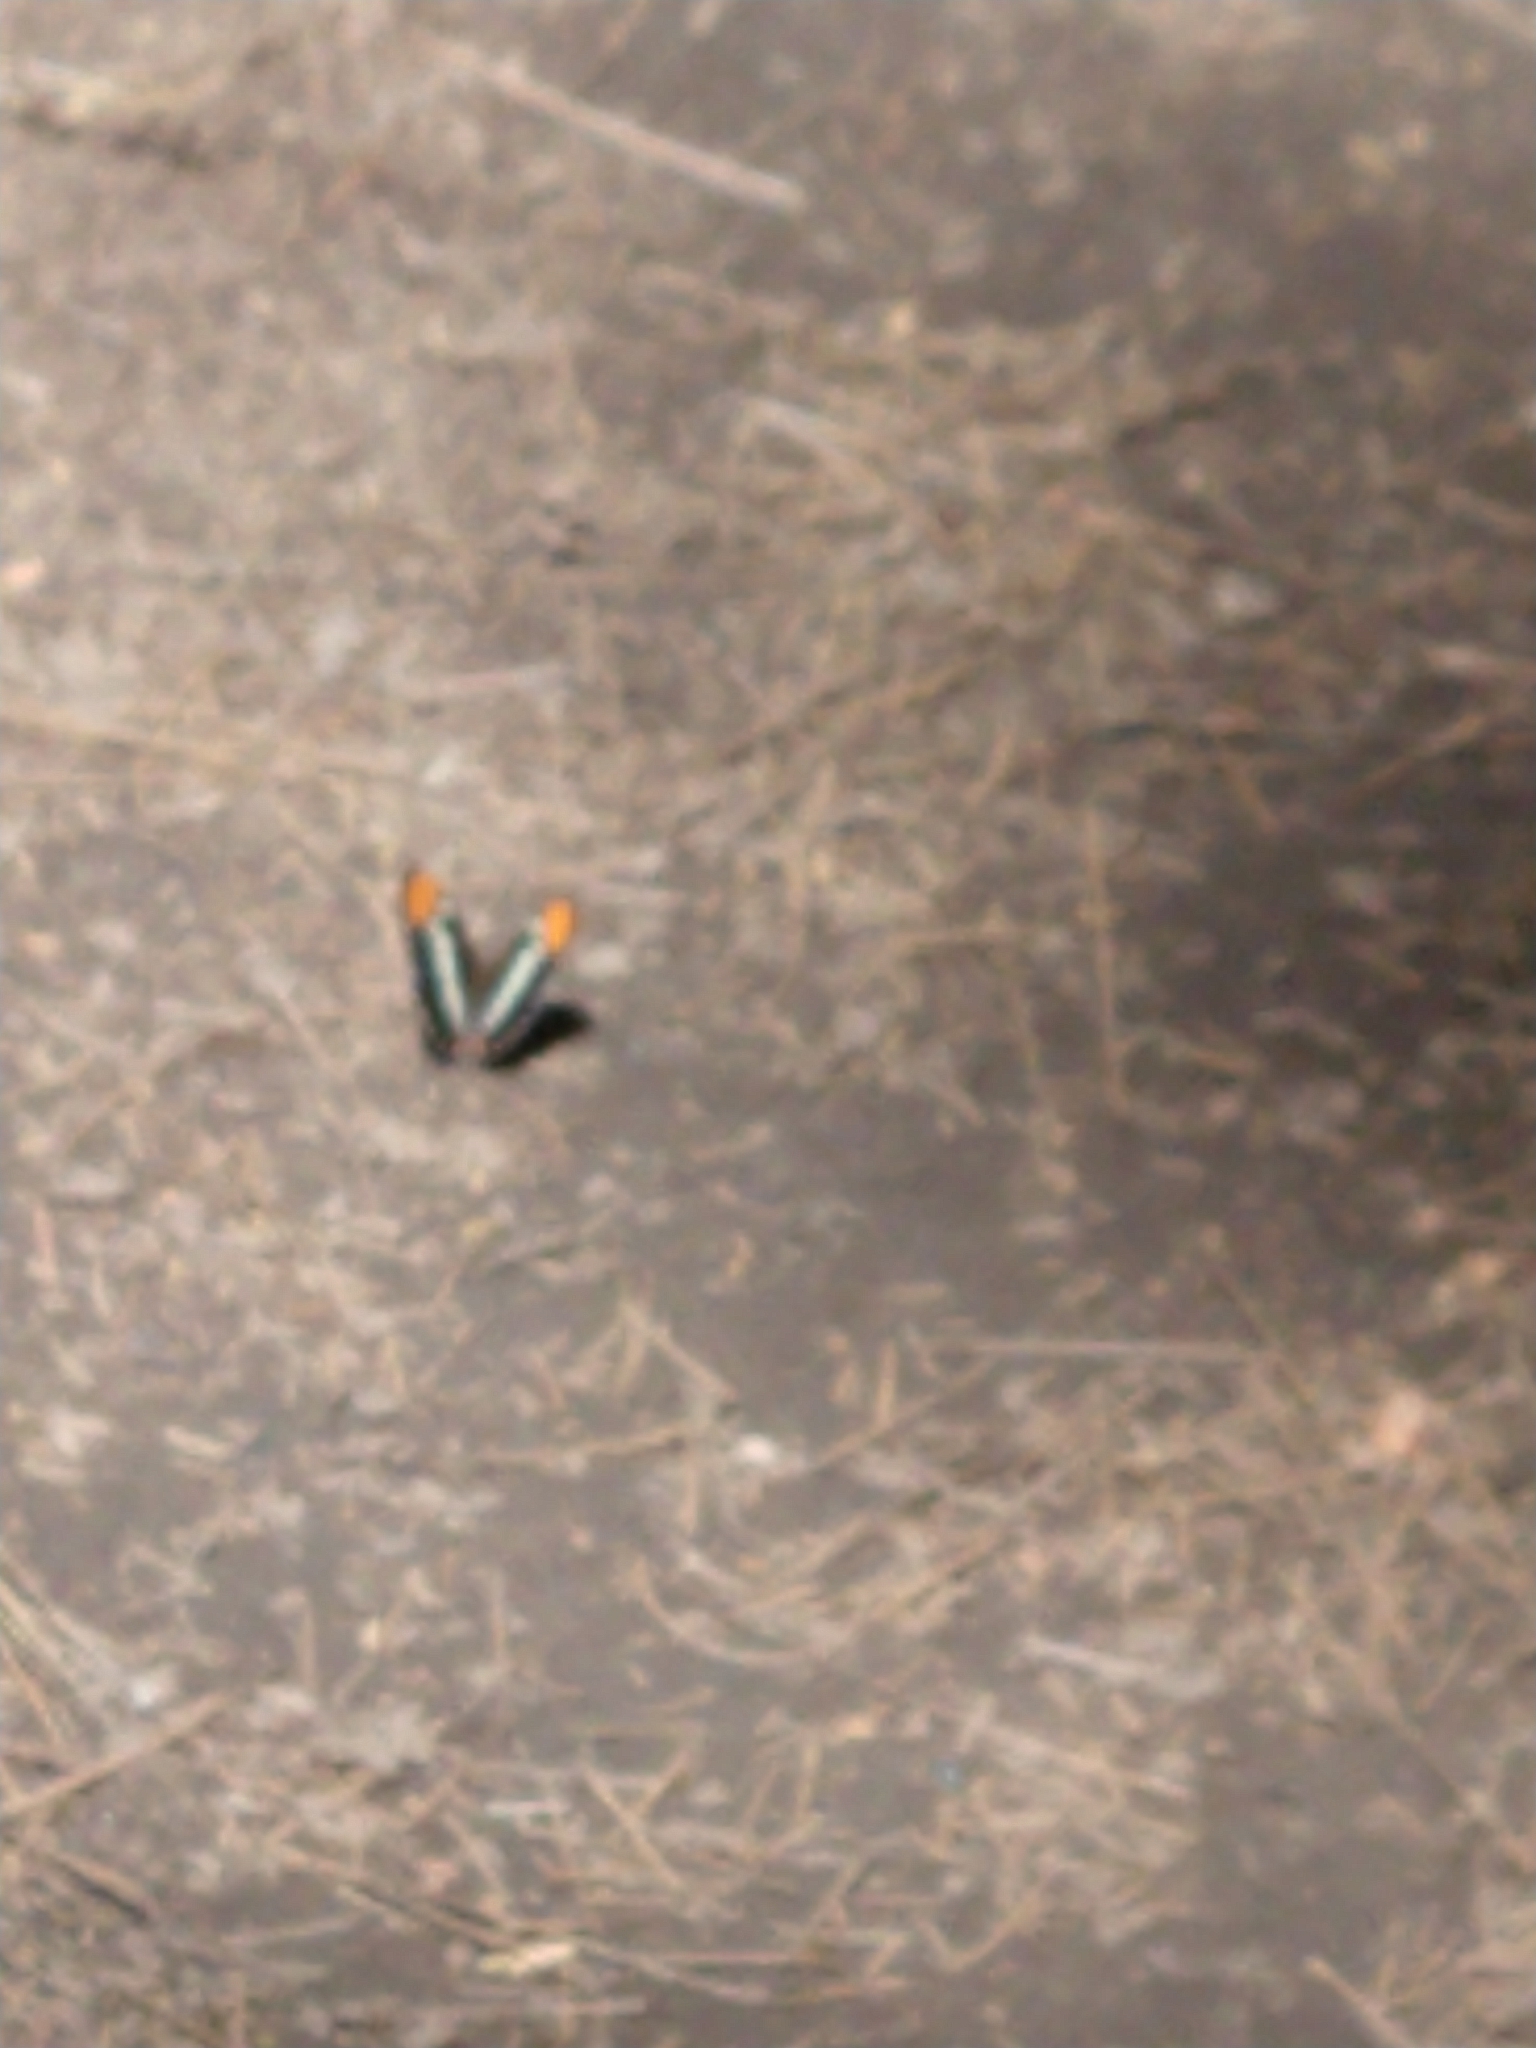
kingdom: Animalia
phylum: Arthropoda
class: Insecta
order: Lepidoptera
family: Nymphalidae
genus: Limenitis
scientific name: Limenitis bredowii
